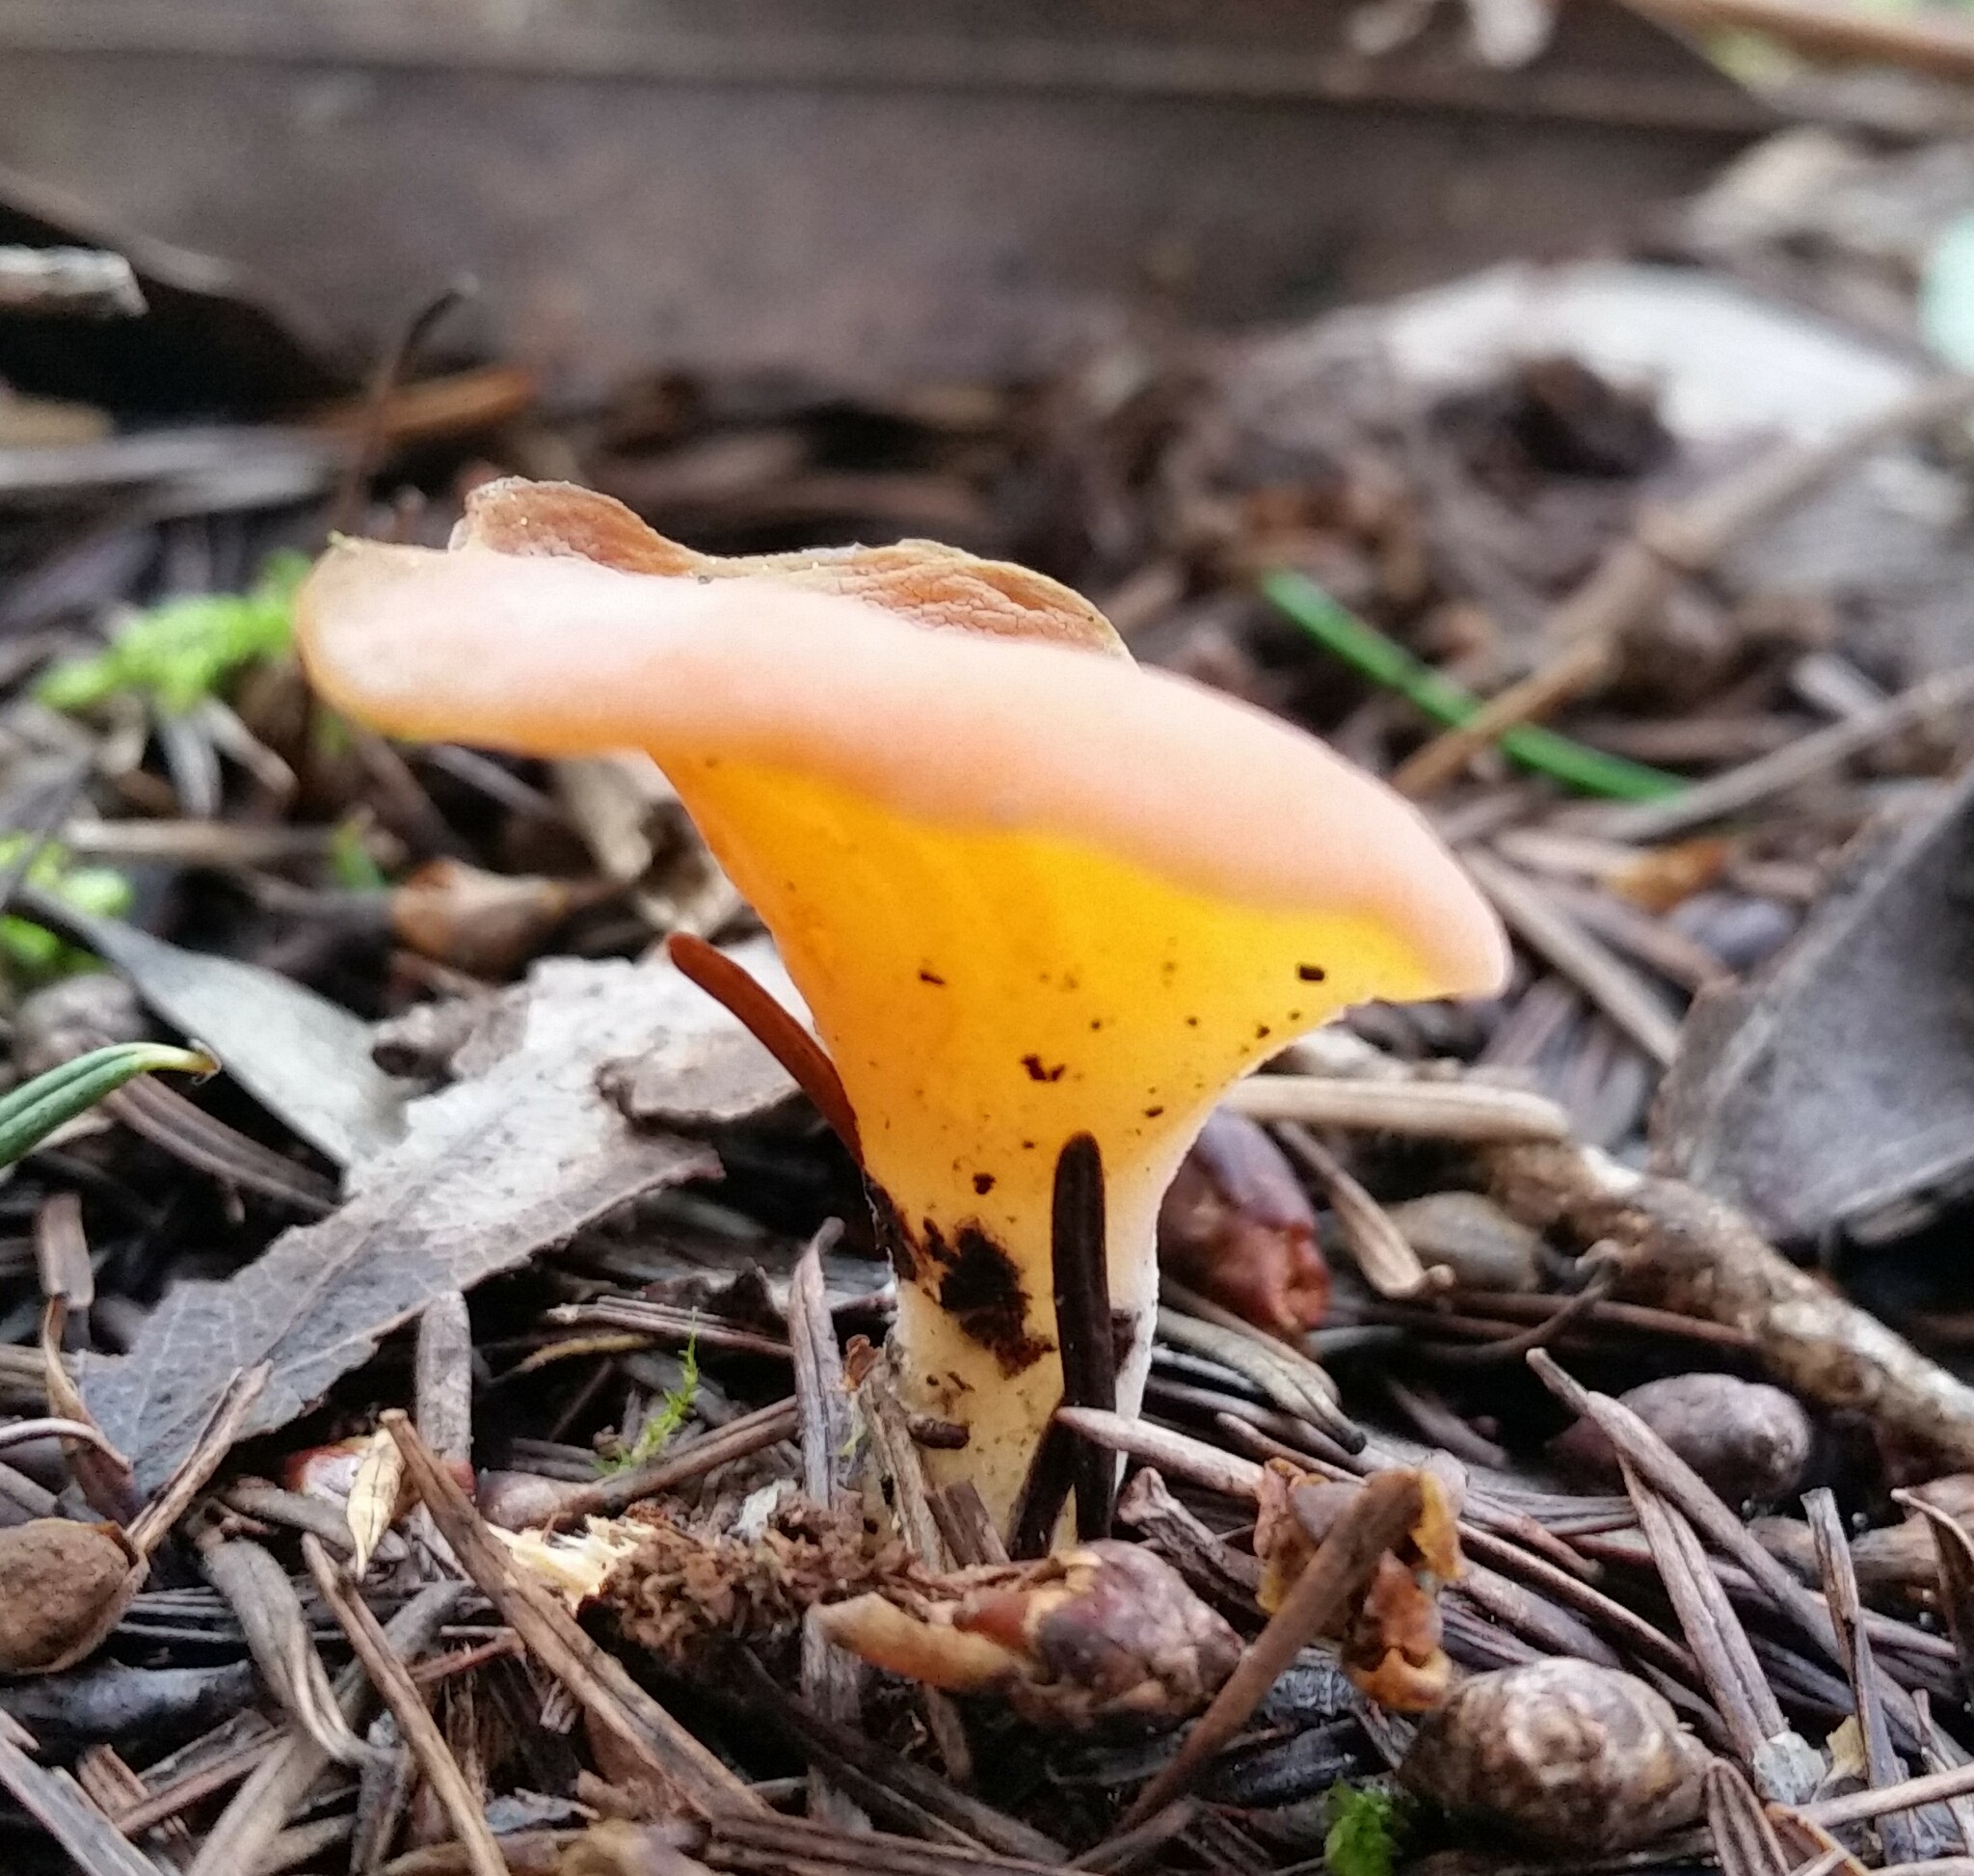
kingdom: Fungi
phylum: Basidiomycota
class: Agaricomycetes
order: Auriculariales
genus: Guepinia
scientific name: Guepinia helvelloides
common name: Salmon salad
